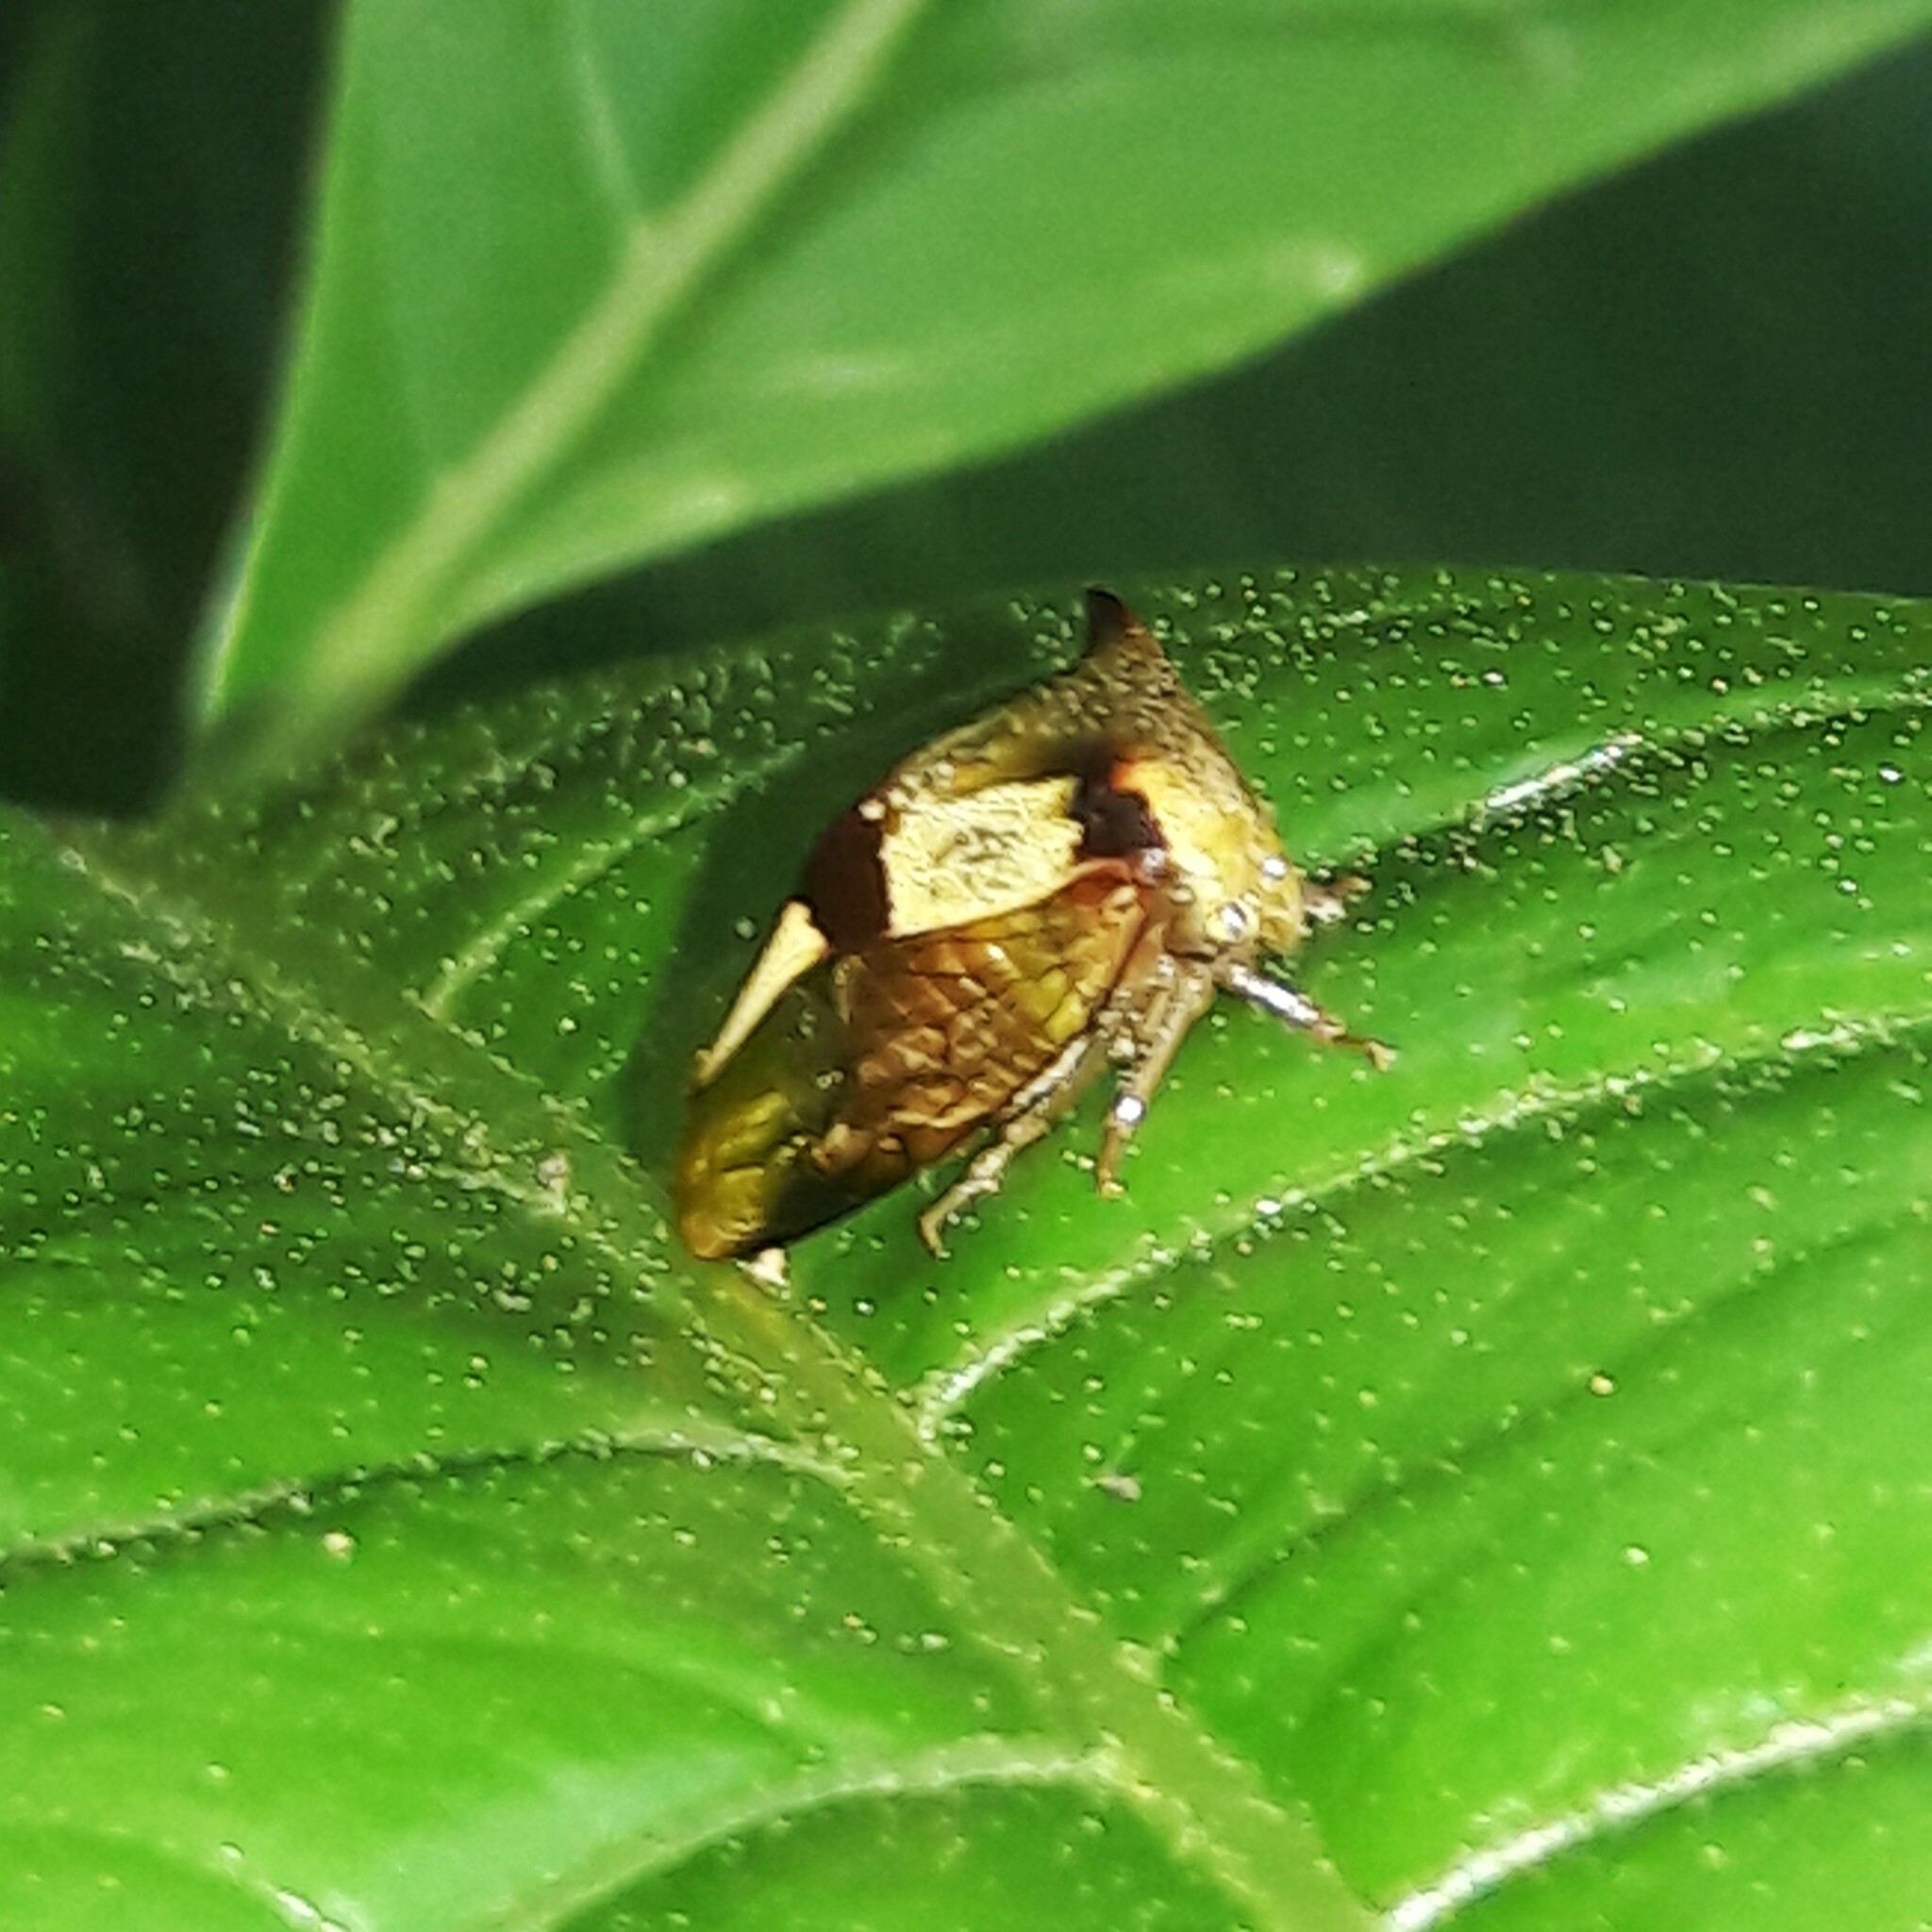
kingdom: Animalia
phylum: Arthropoda
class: Insecta
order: Hemiptera
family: Membracidae
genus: Ceresa
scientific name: Ceresa paulistana
